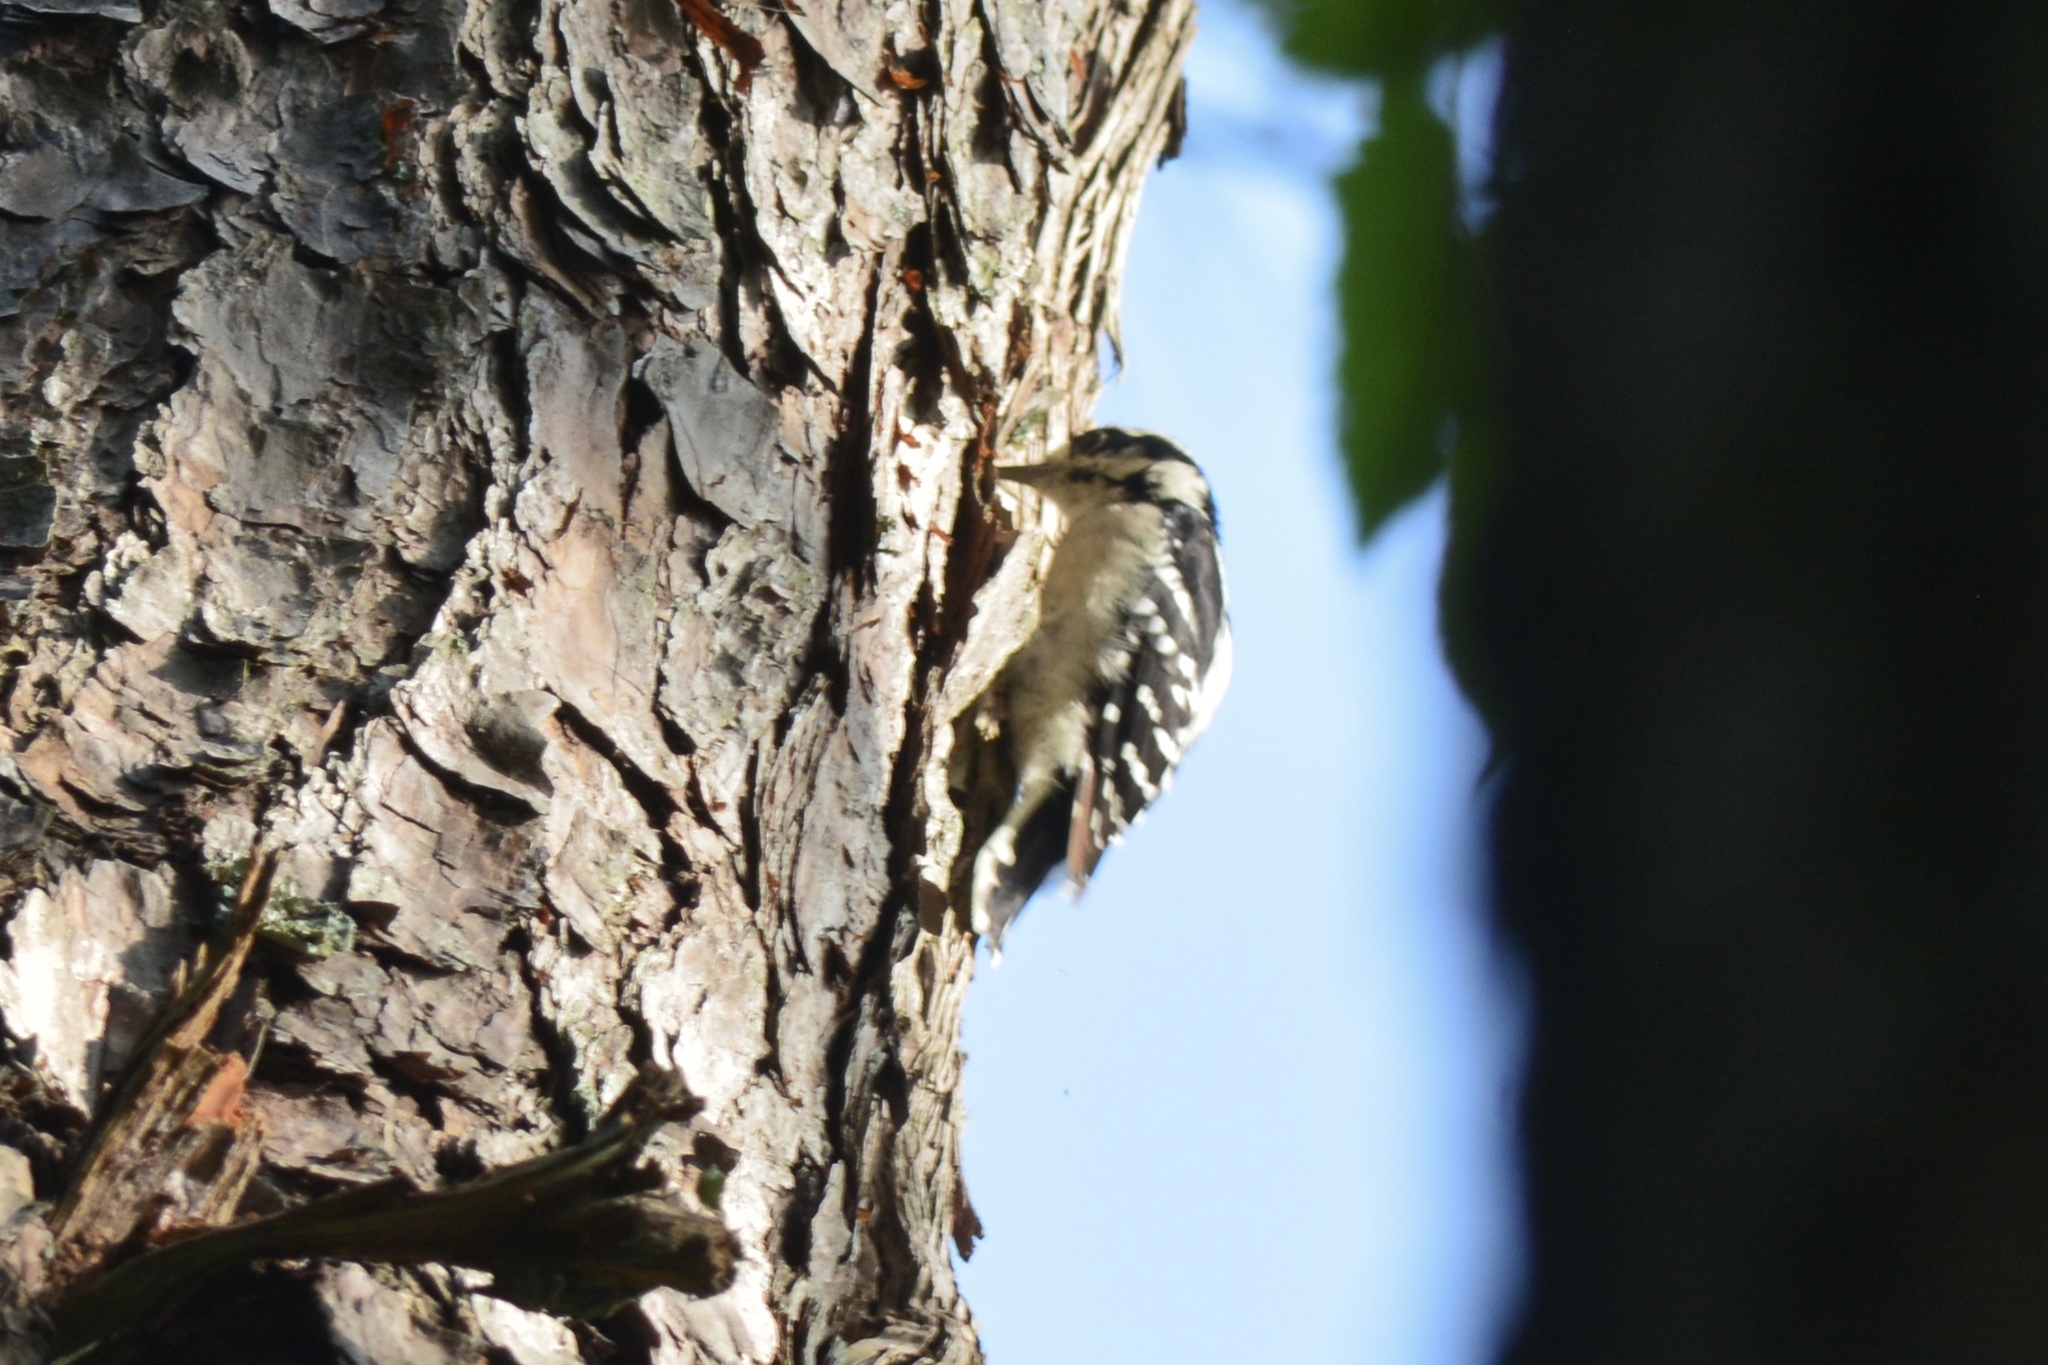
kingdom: Animalia
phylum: Chordata
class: Aves
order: Piciformes
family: Picidae
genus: Dryobates
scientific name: Dryobates pubescens
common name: Downy woodpecker
